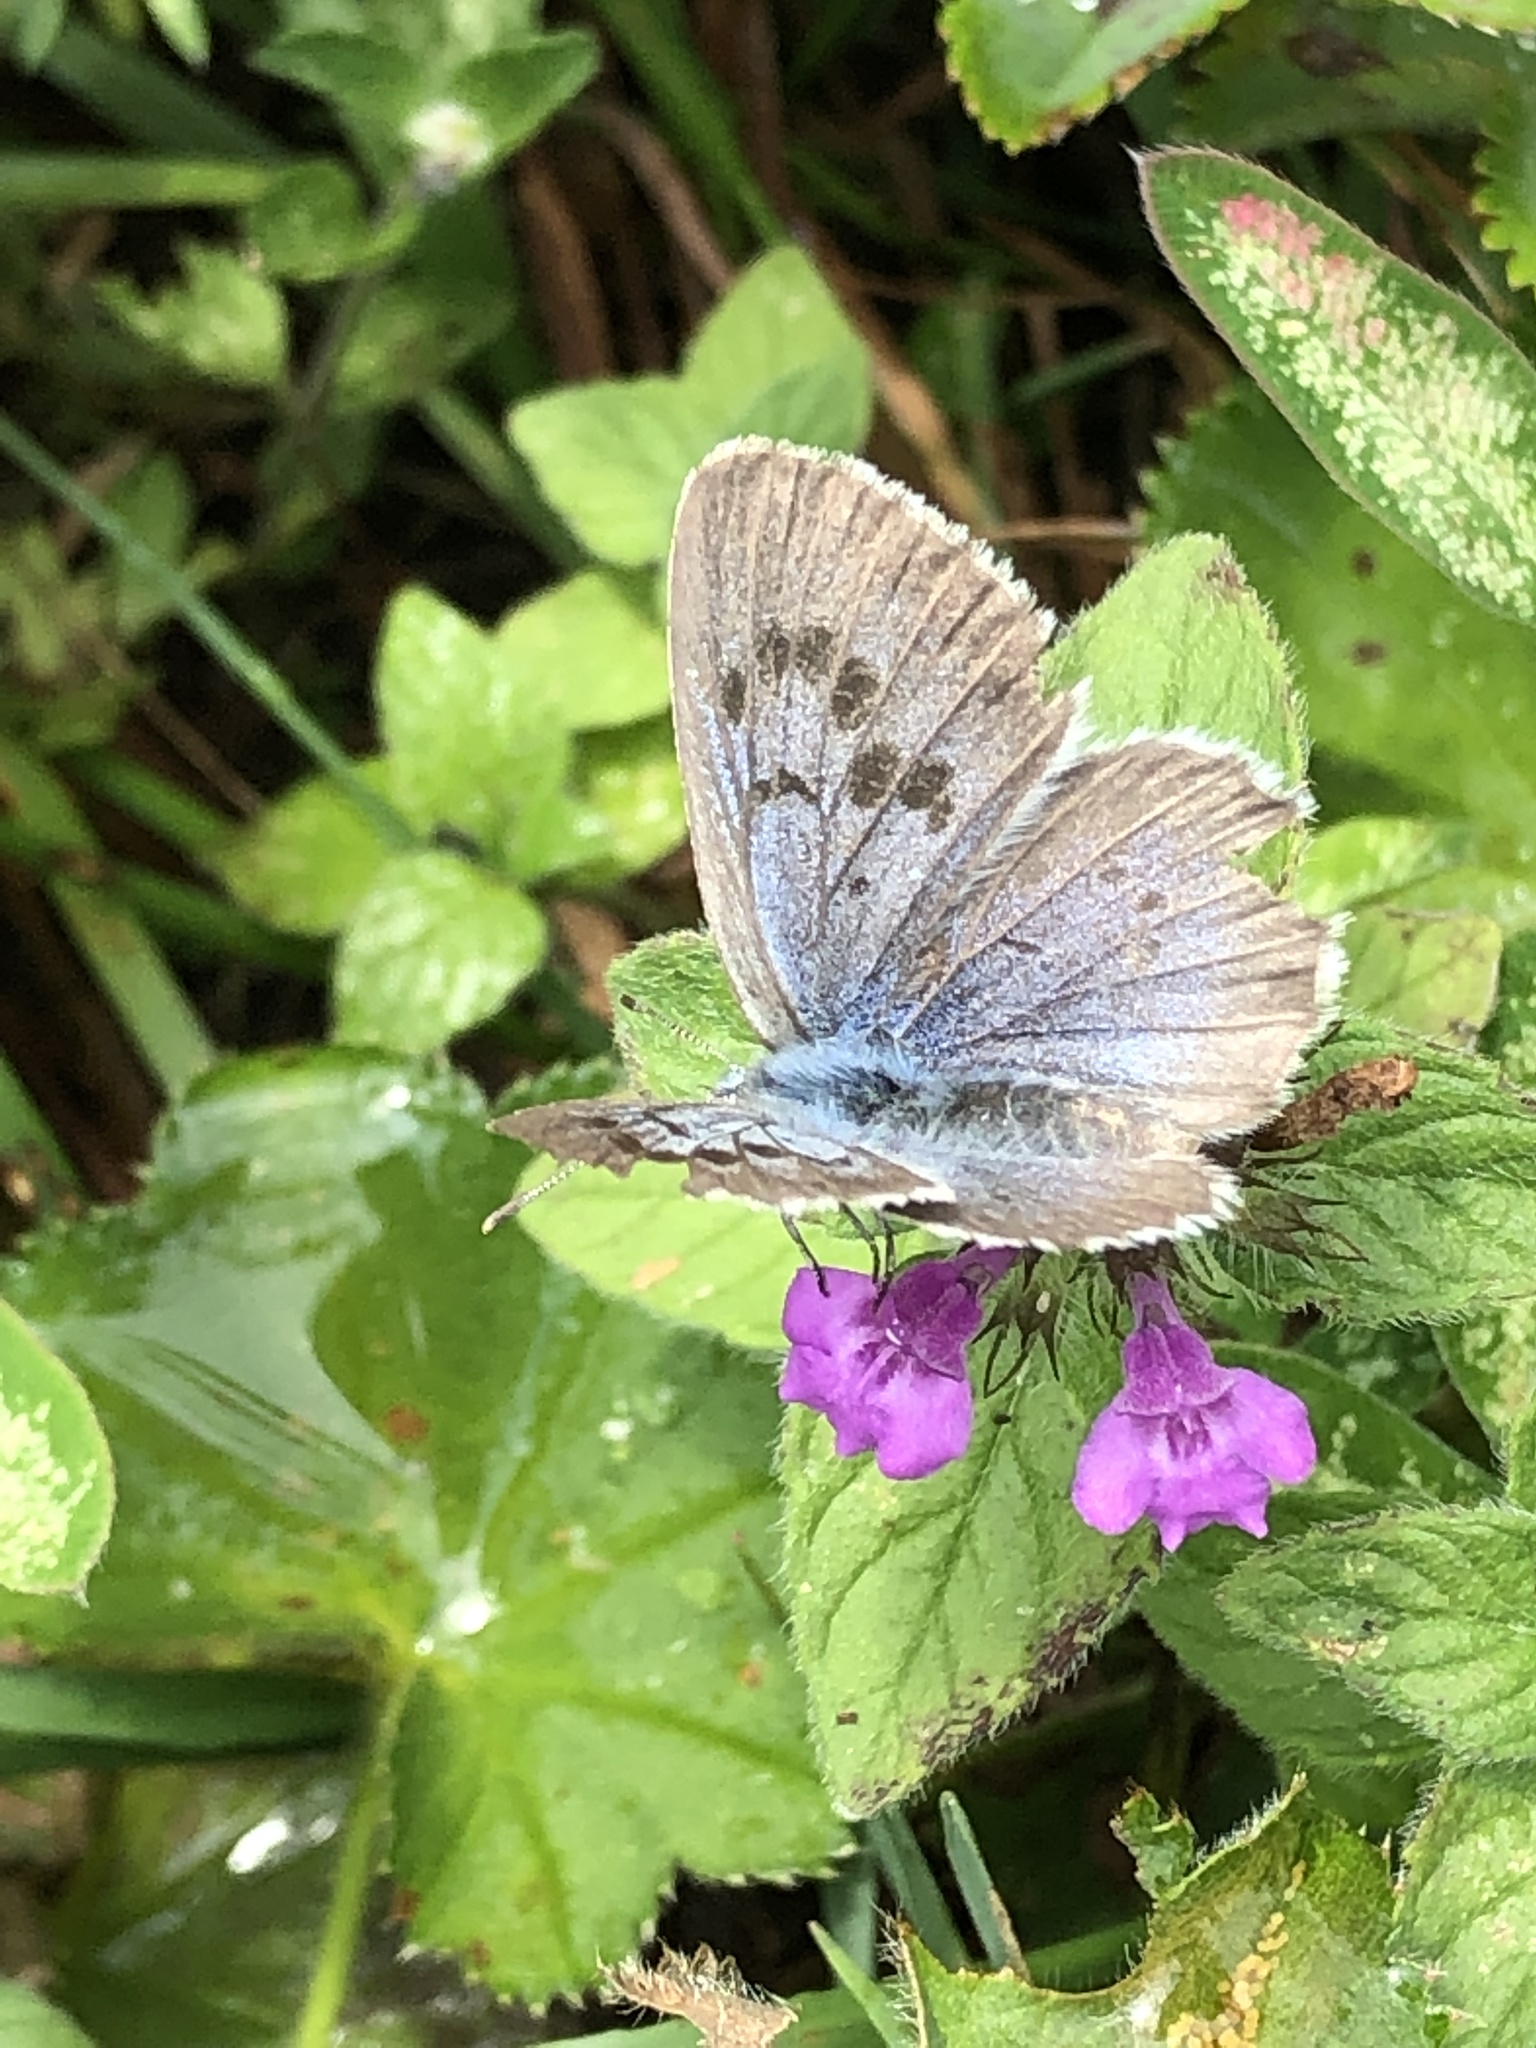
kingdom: Animalia
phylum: Arthropoda
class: Insecta
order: Lepidoptera
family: Lycaenidae
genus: Maculinea
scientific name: Maculinea arion
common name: Large blue
